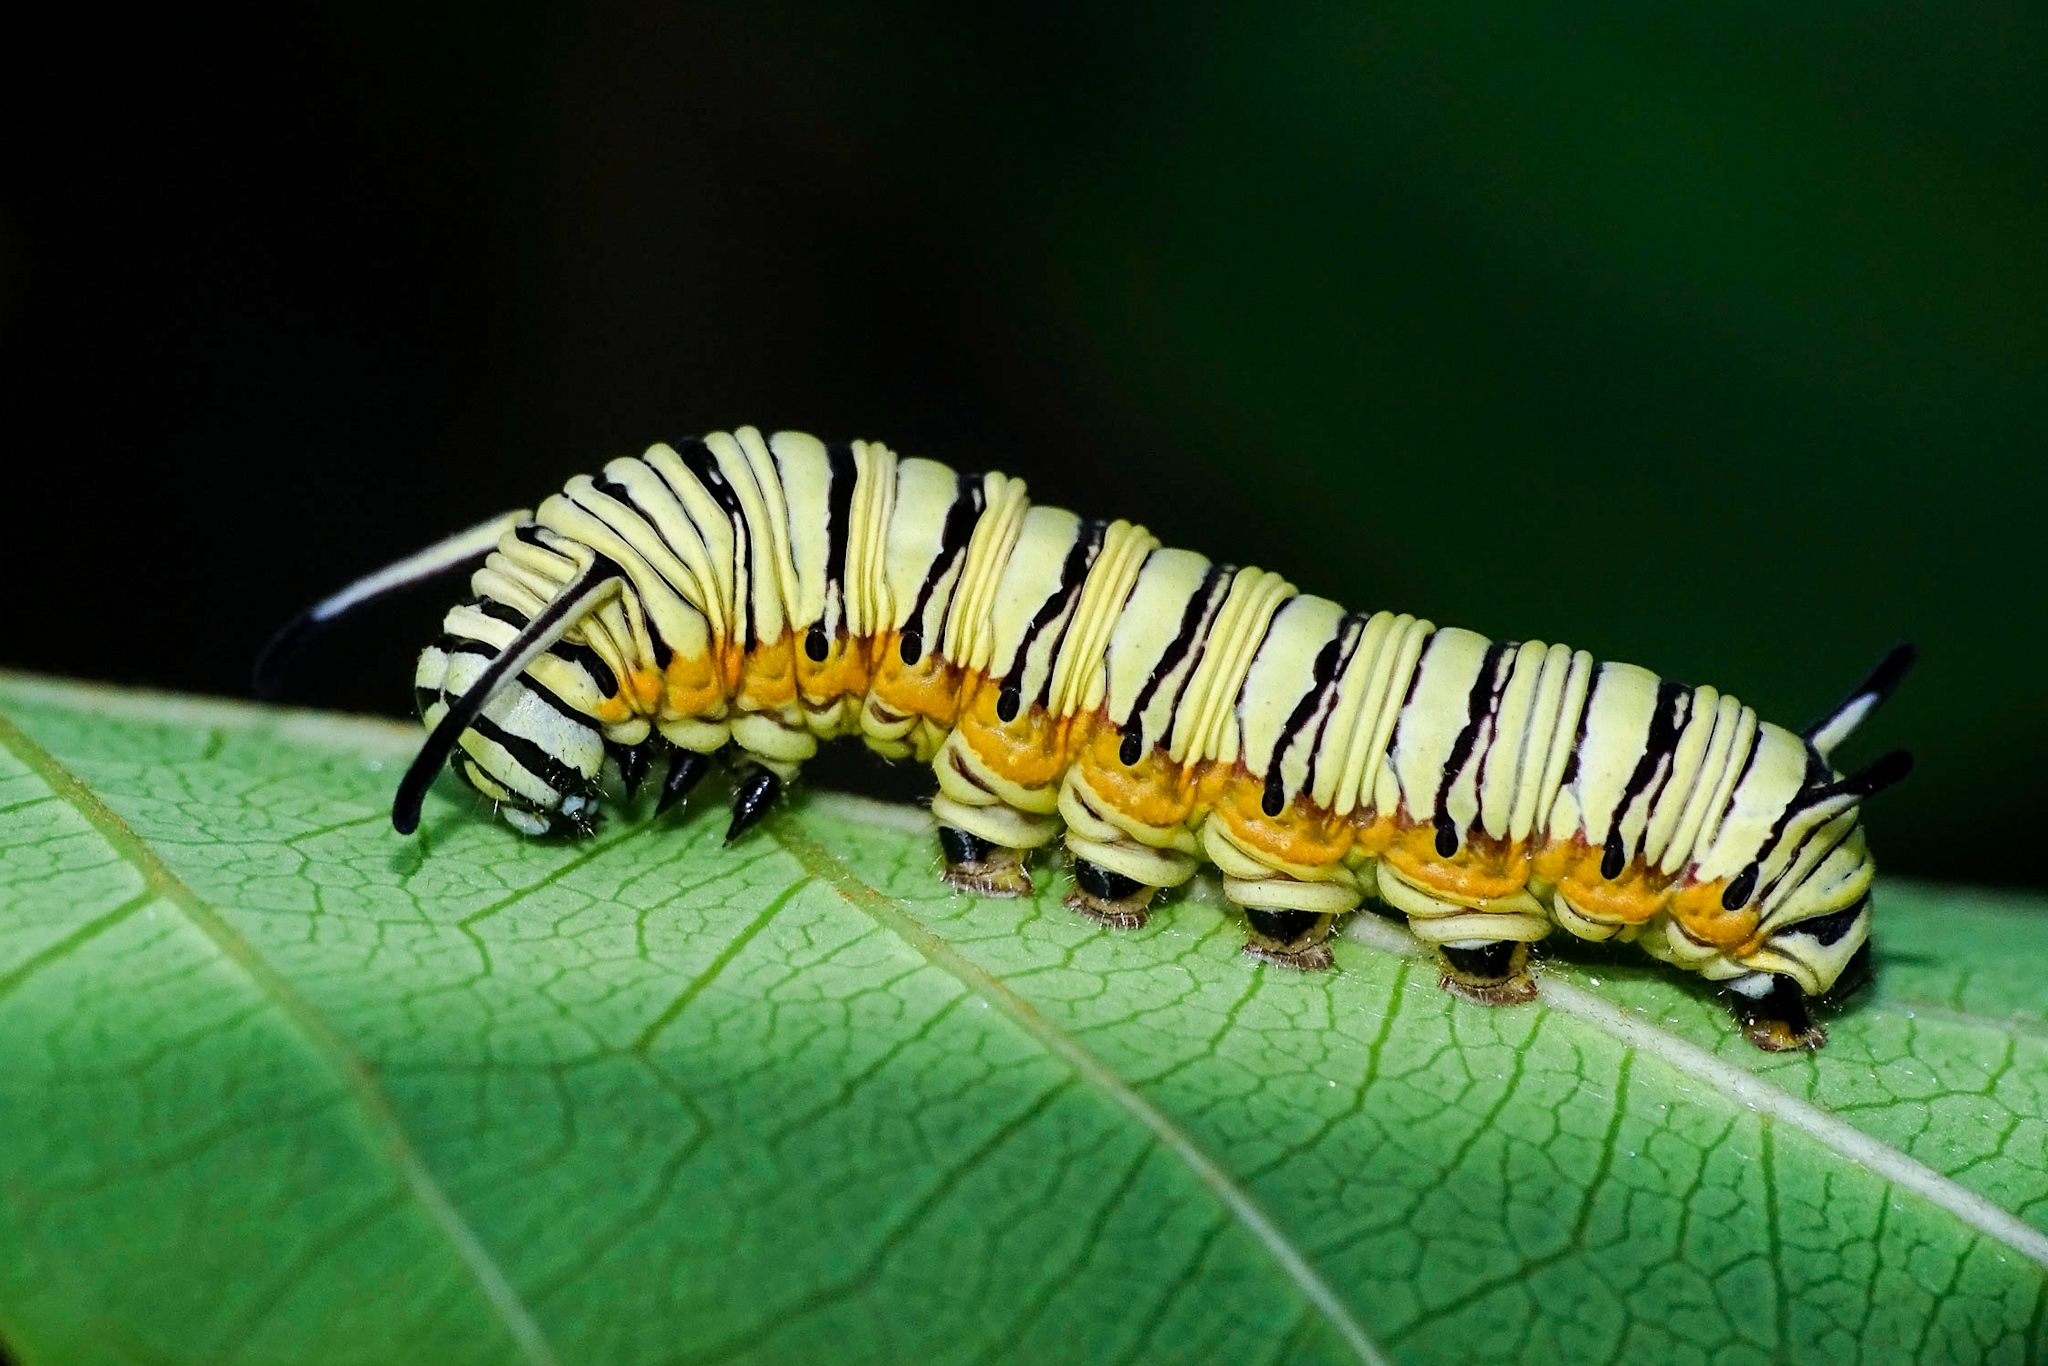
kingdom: Animalia
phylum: Arthropoda
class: Insecta
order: Lepidoptera
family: Nymphalidae
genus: Tirumala
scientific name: Tirumala limniace
